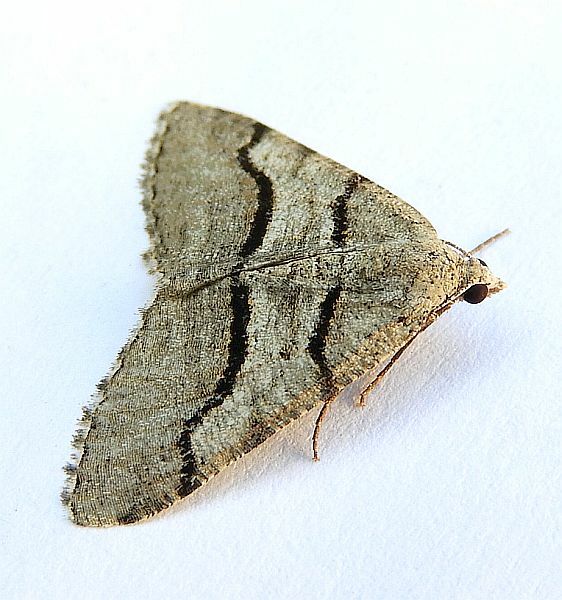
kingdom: Animalia
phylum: Arthropoda
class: Insecta
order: Lepidoptera
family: Geometridae
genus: Digrammia
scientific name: Digrammia continuata
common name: Curve-lined angle
